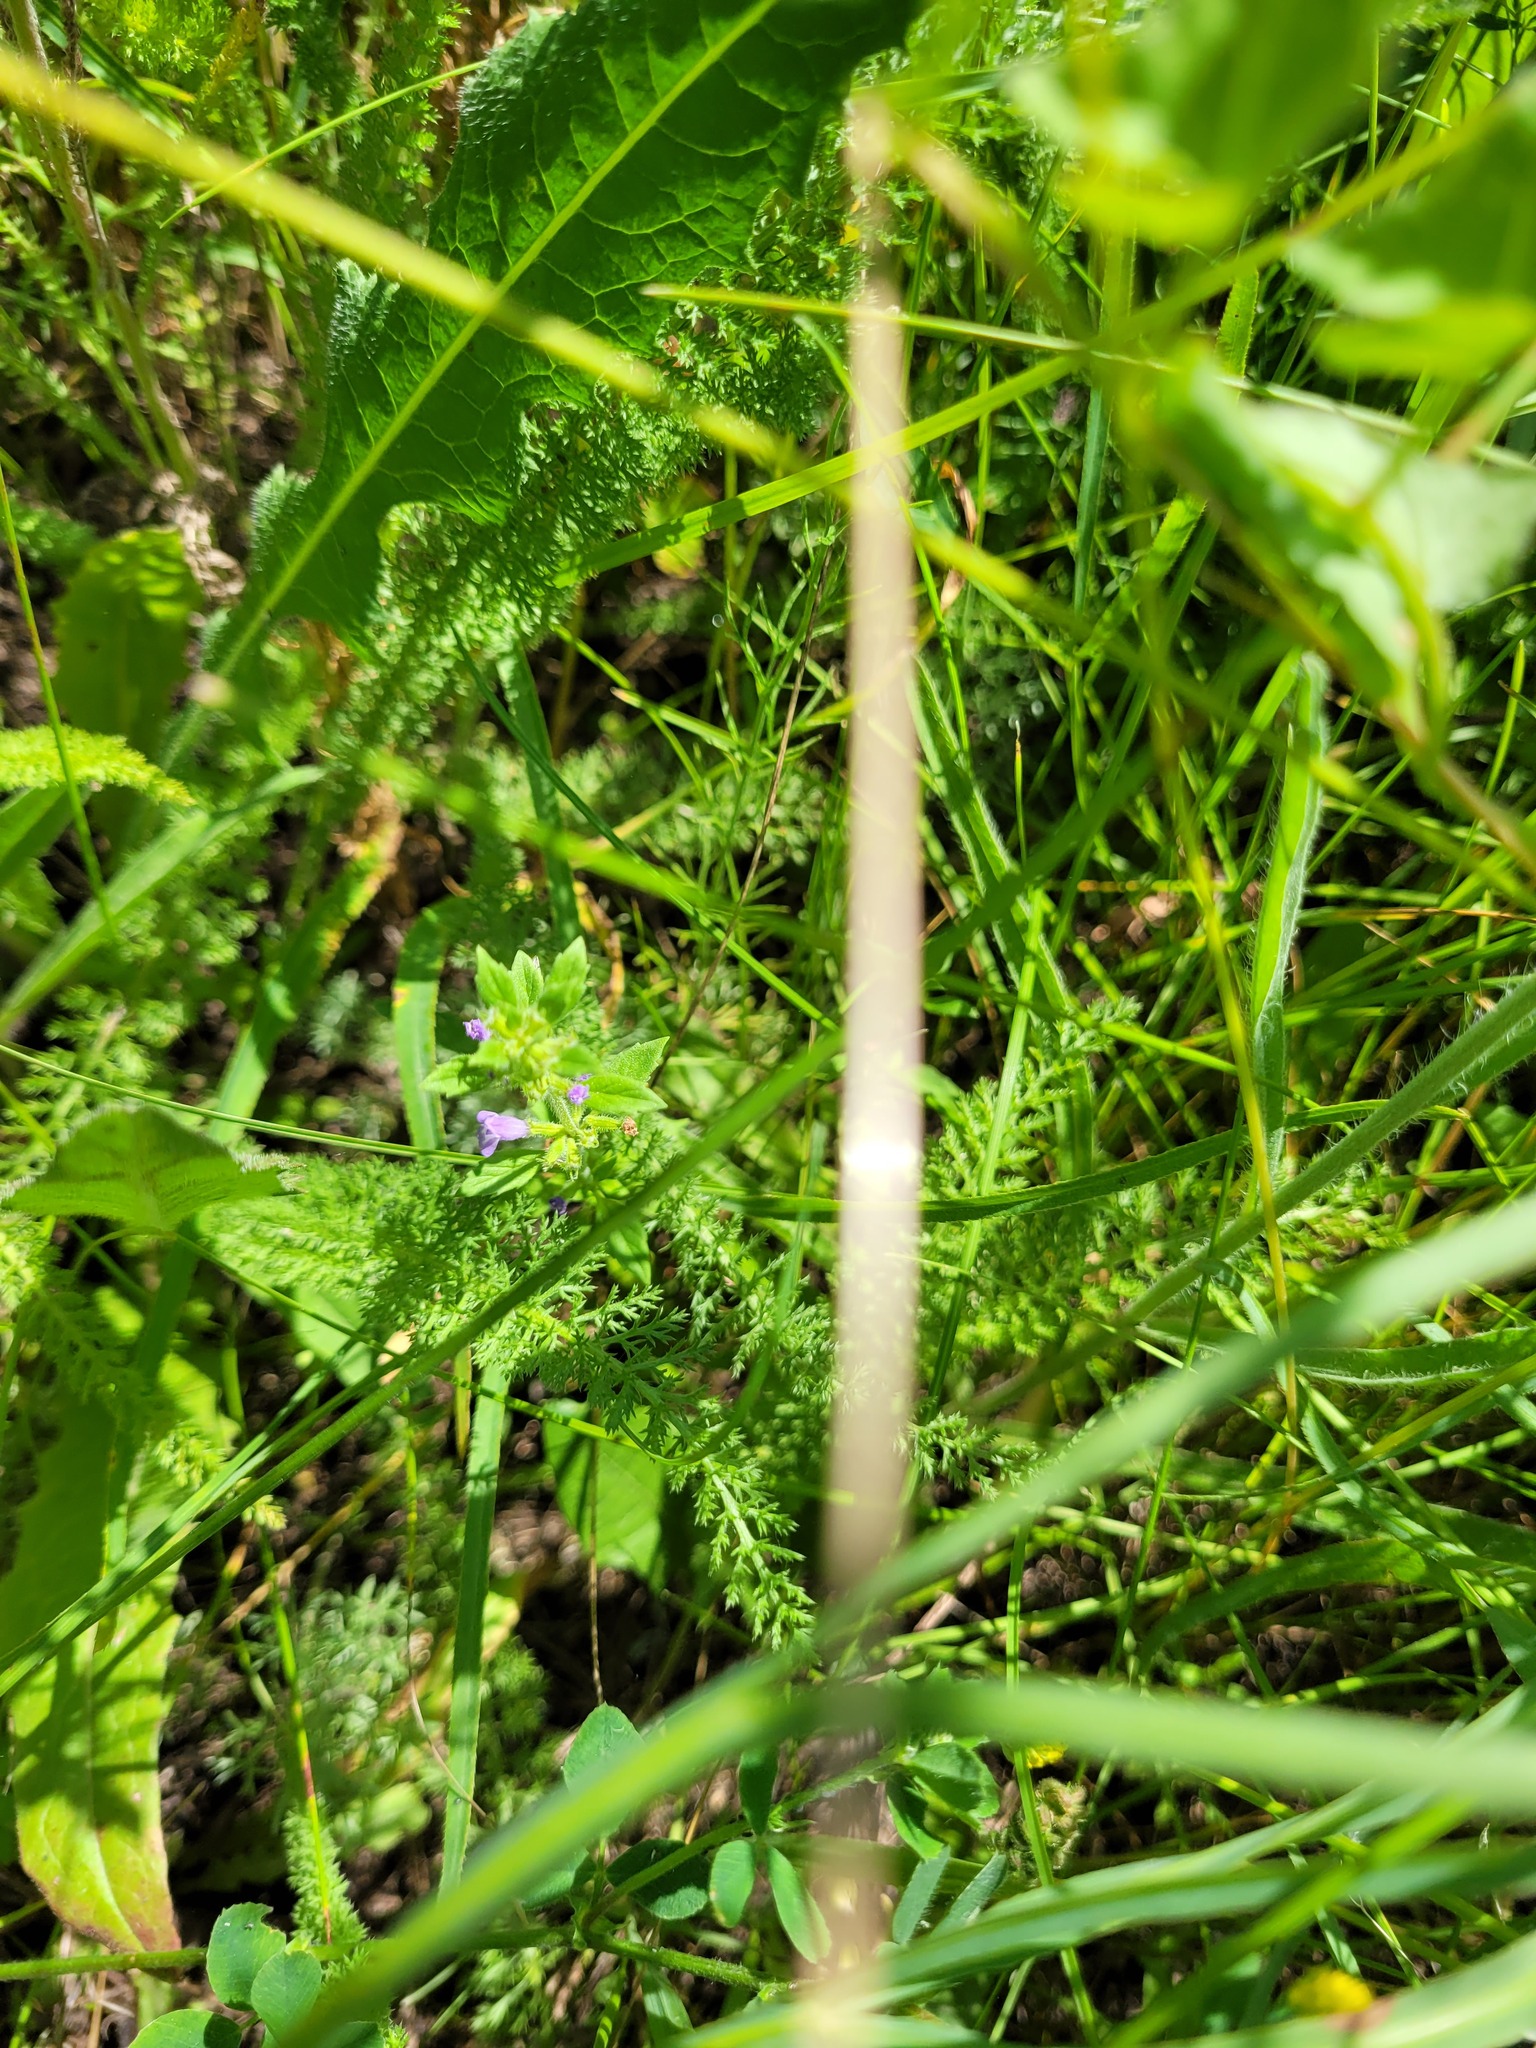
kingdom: Plantae
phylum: Tracheophyta
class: Magnoliopsida
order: Lamiales
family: Lamiaceae
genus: Clinopodium
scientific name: Clinopodium acinos
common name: Basil thyme
